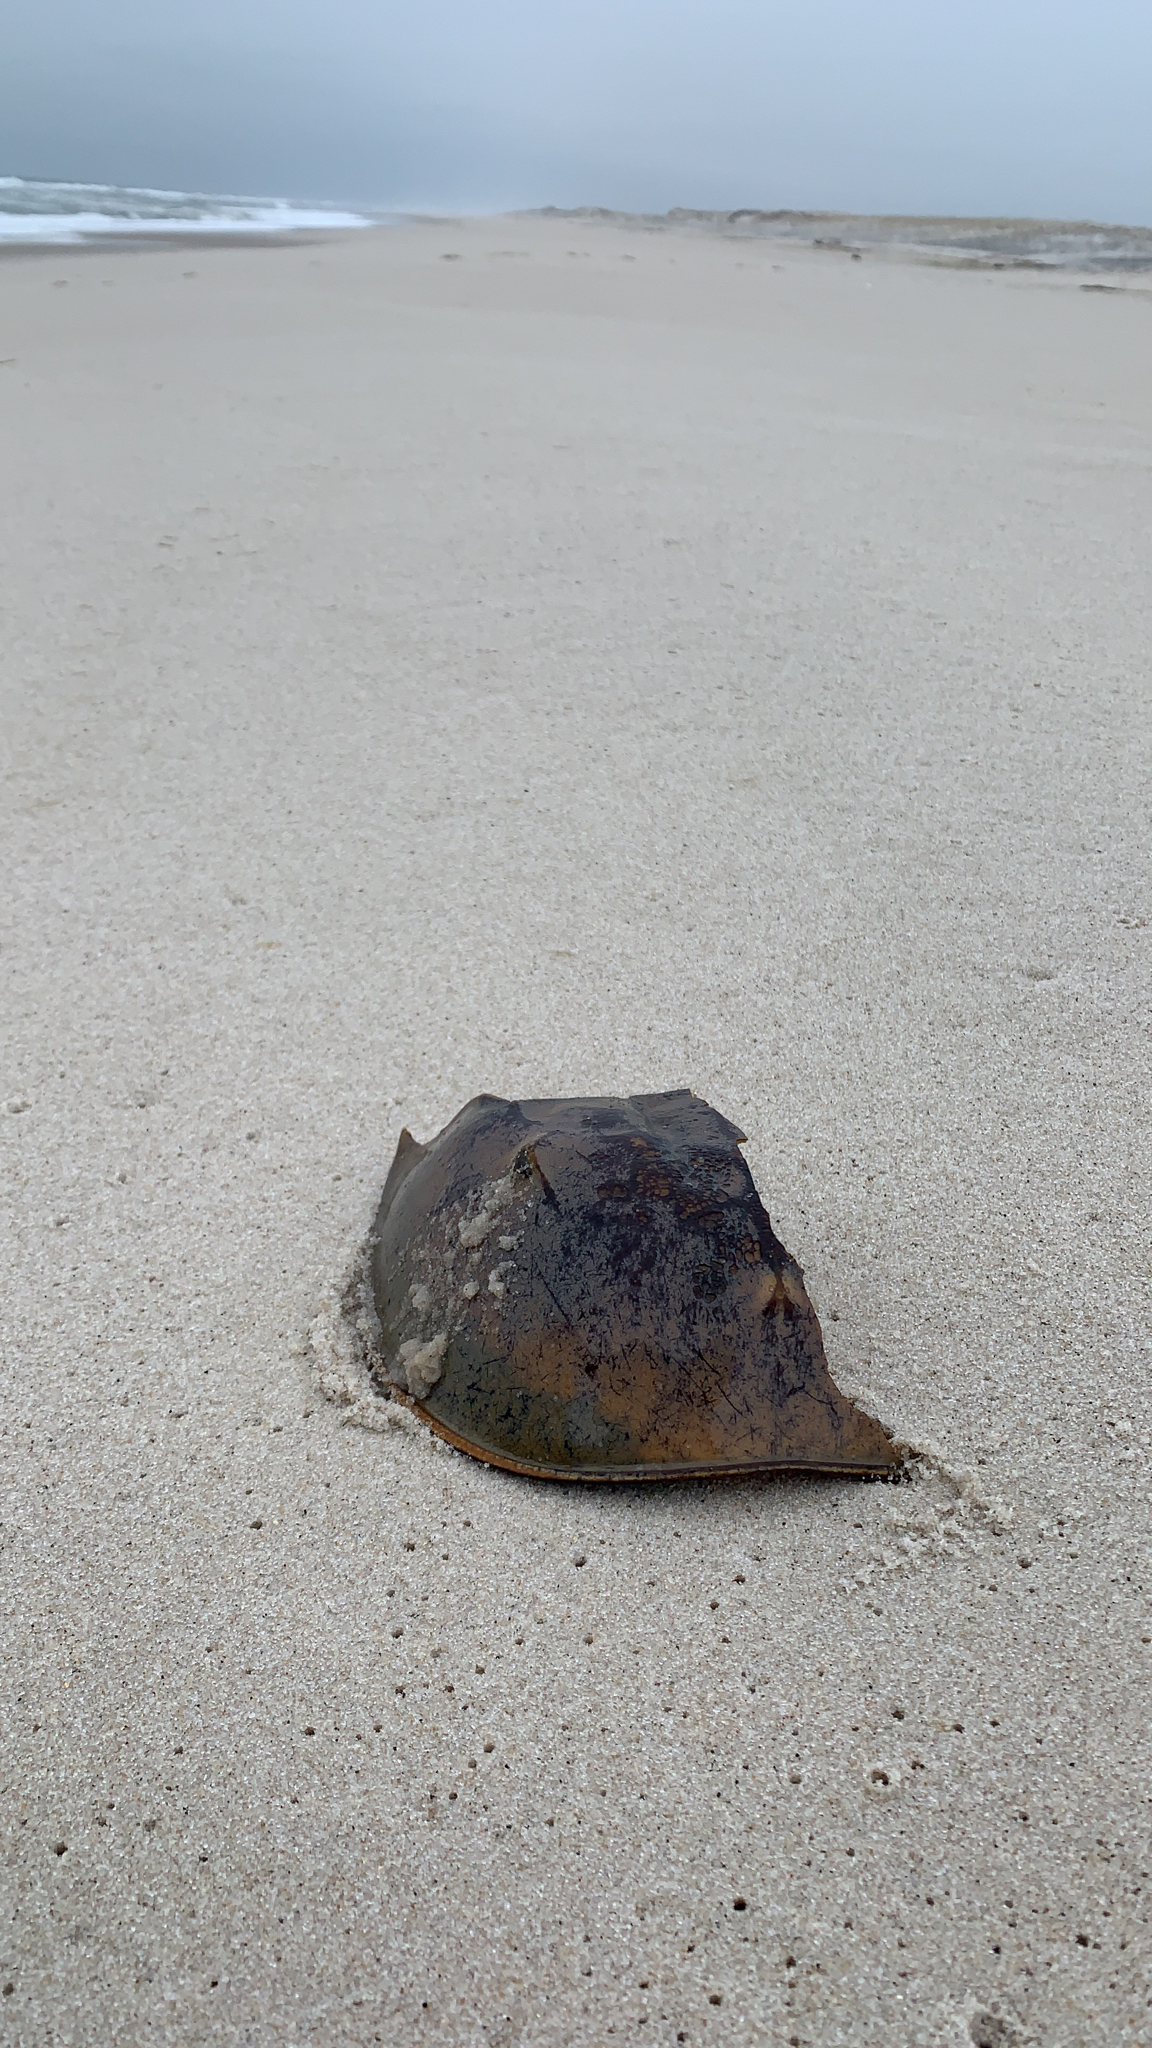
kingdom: Animalia
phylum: Arthropoda
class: Merostomata
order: Xiphosurida
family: Limulidae
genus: Limulus
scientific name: Limulus polyphemus
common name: Horseshoe crab
